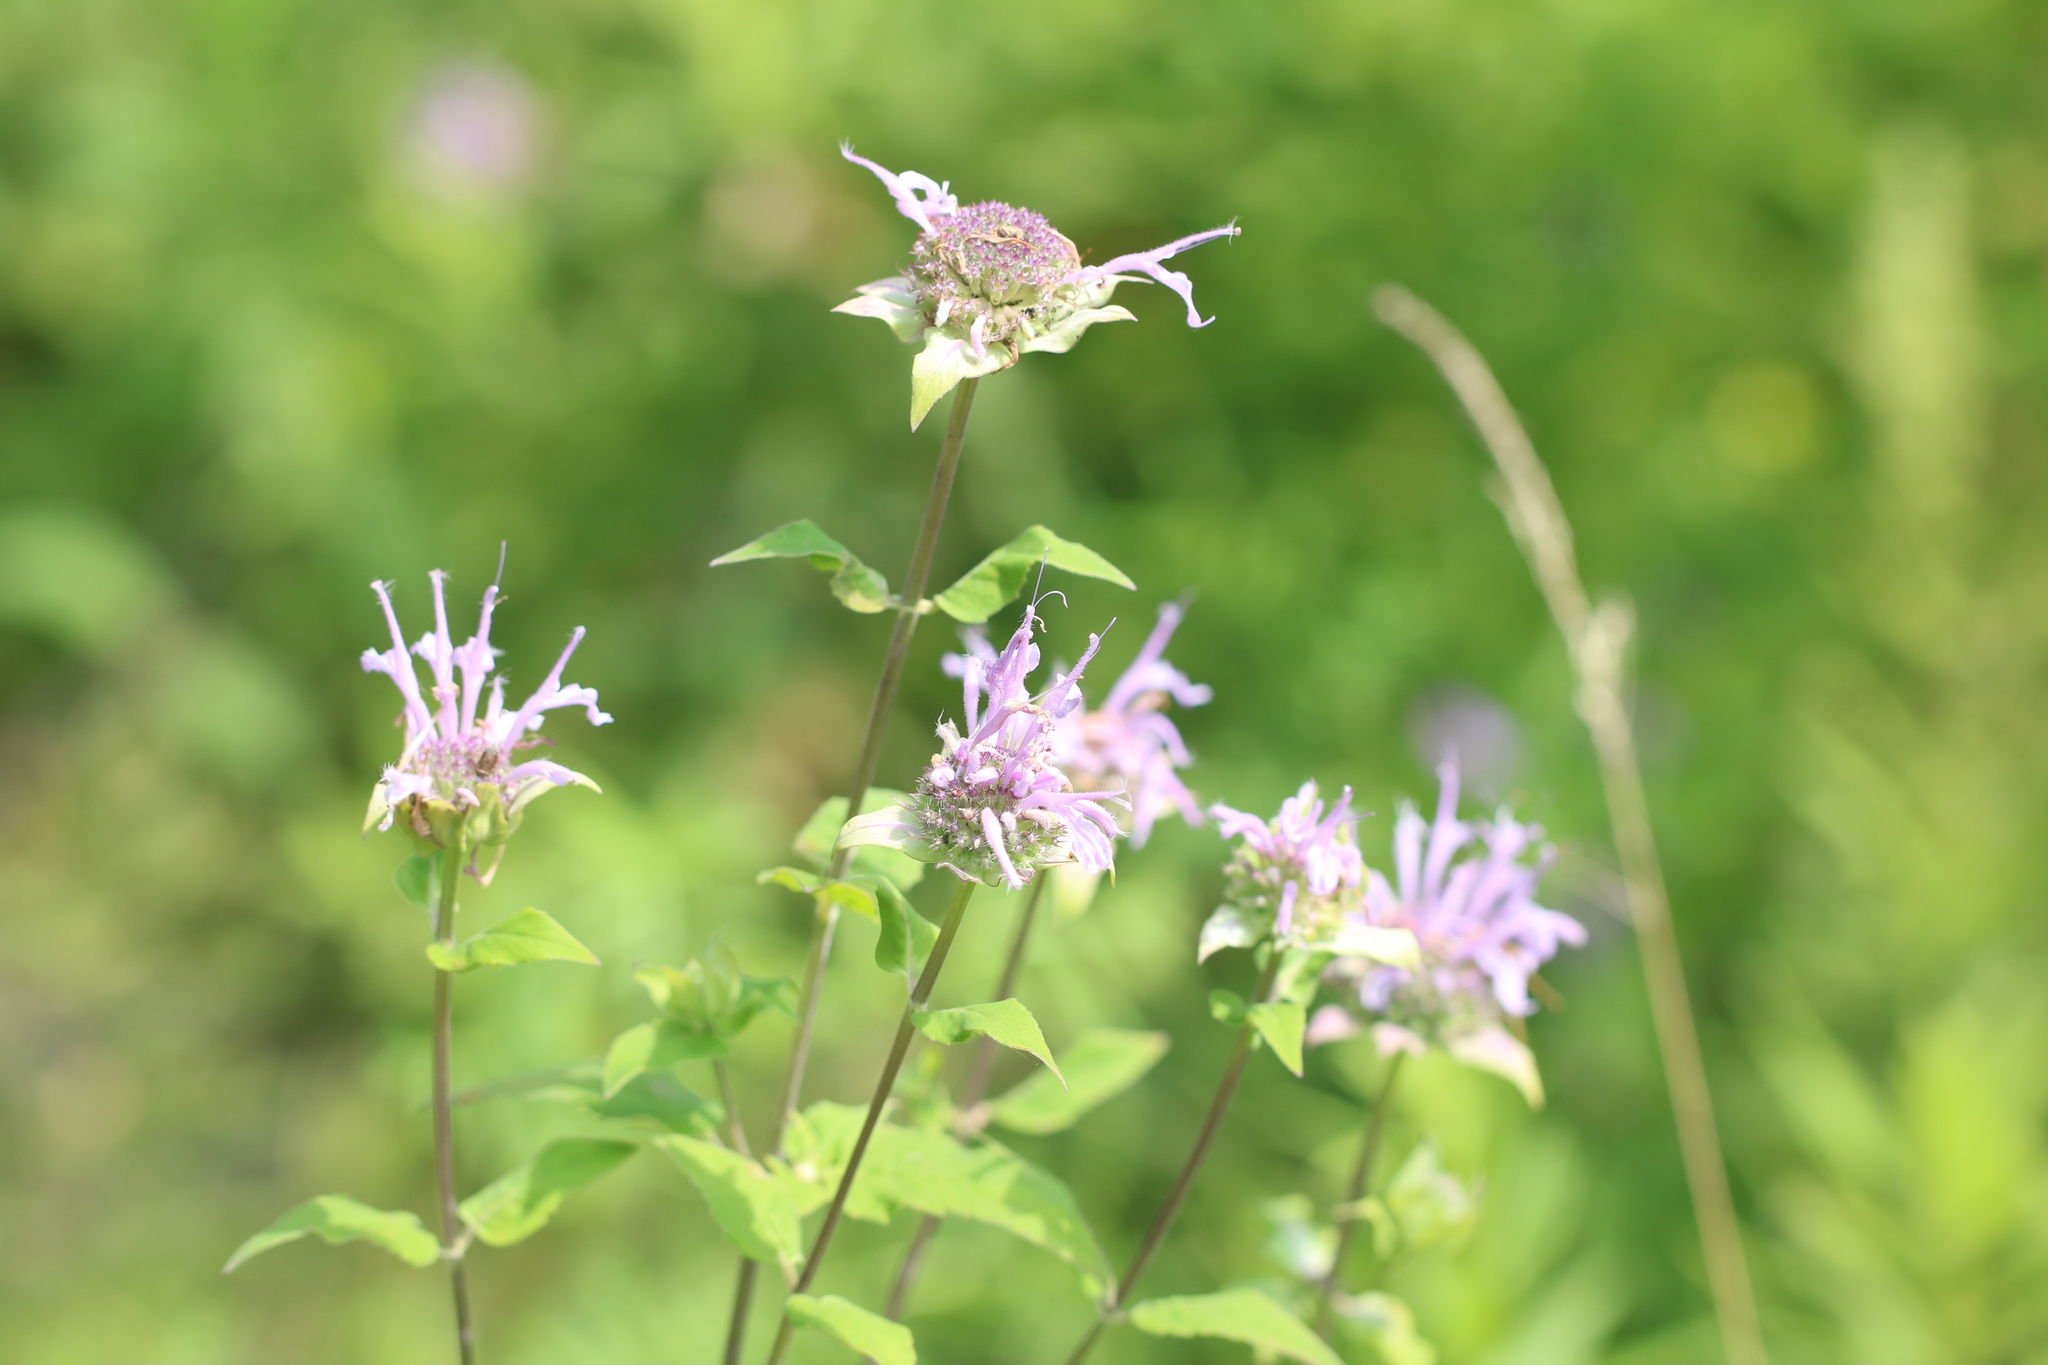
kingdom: Plantae
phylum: Tracheophyta
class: Magnoliopsida
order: Lamiales
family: Lamiaceae
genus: Monarda
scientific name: Monarda fistulosa
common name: Purple beebalm
